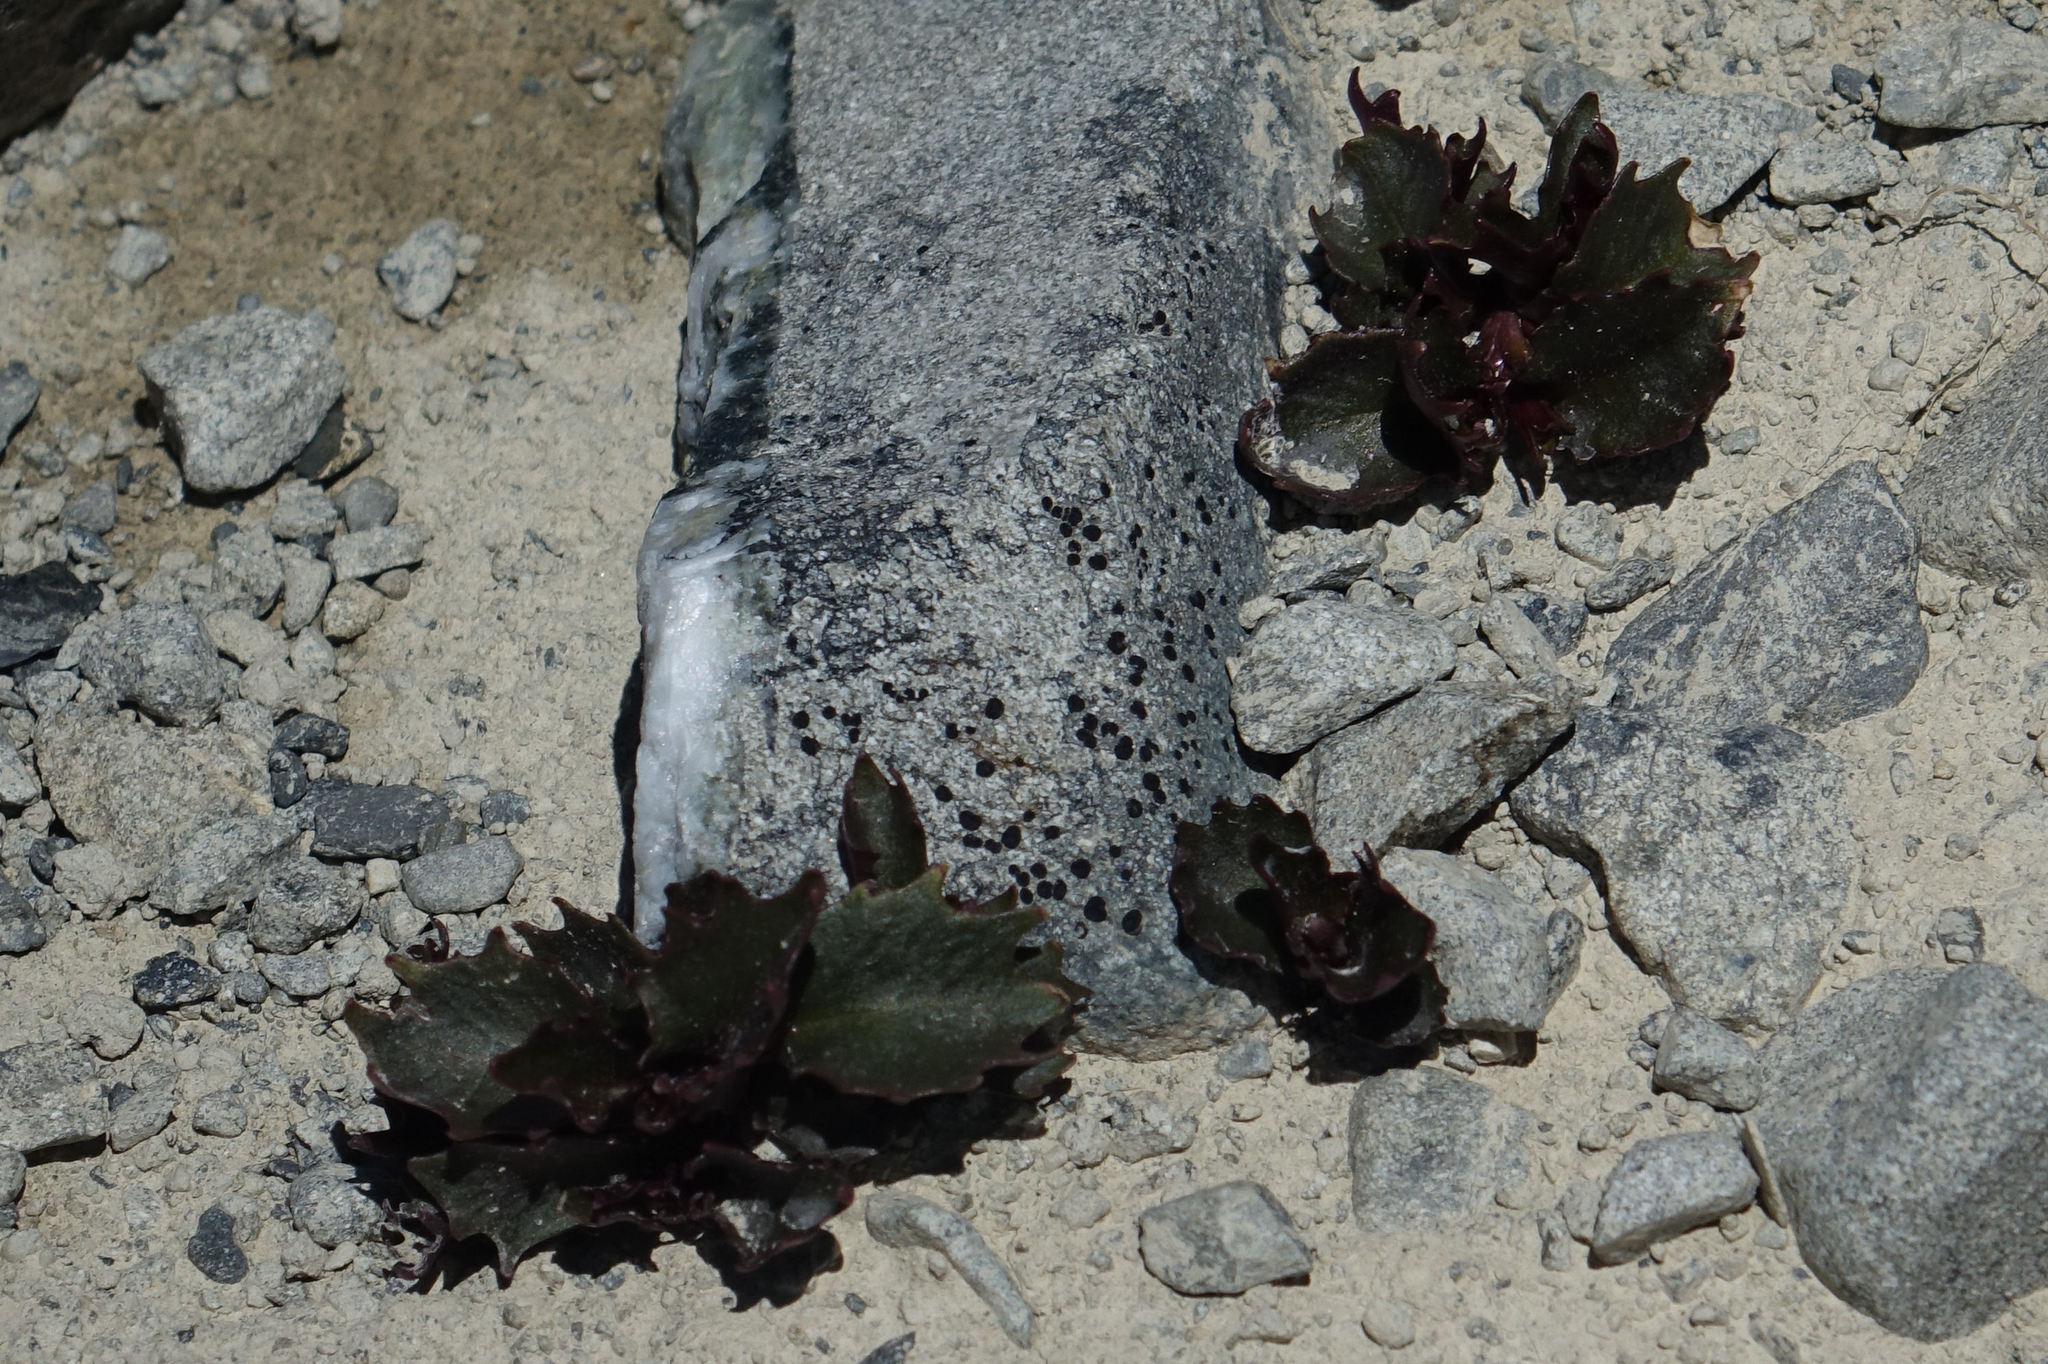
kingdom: Plantae
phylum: Tracheophyta
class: Magnoliopsida
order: Asterales
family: Campanulaceae
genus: Lobelia
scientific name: Lobelia roughii
